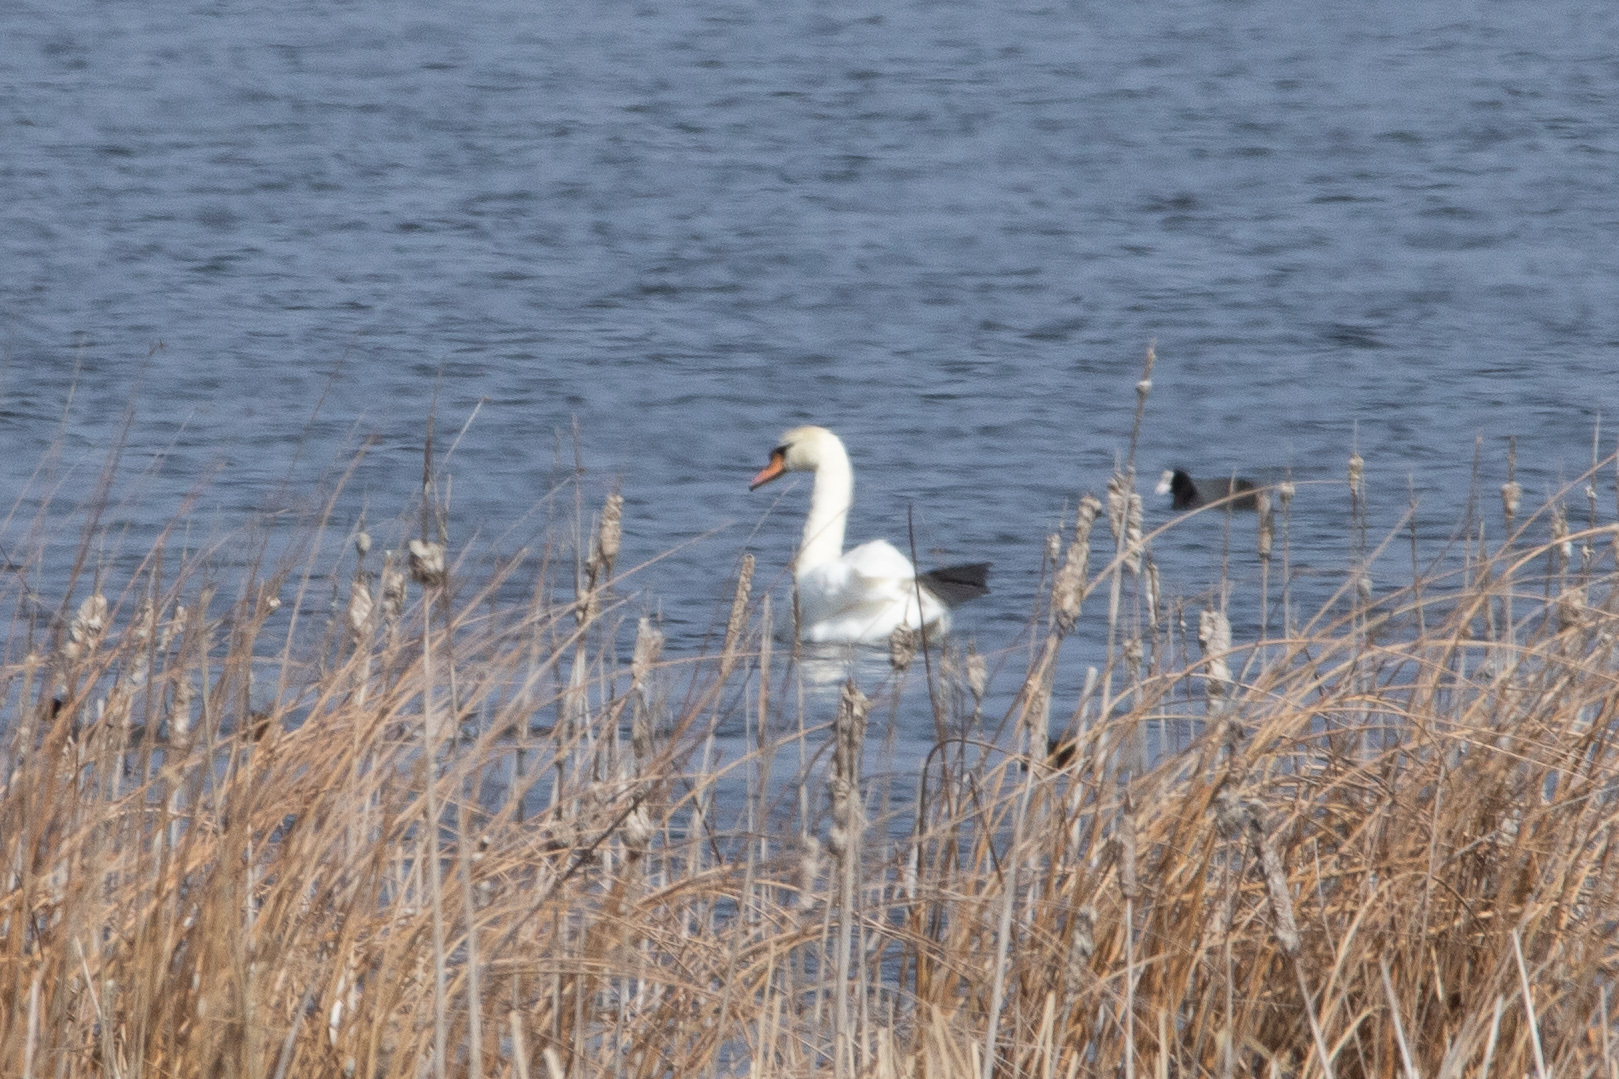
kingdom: Animalia
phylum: Chordata
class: Aves
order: Anseriformes
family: Anatidae
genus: Cygnus
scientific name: Cygnus olor
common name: Mute swan
